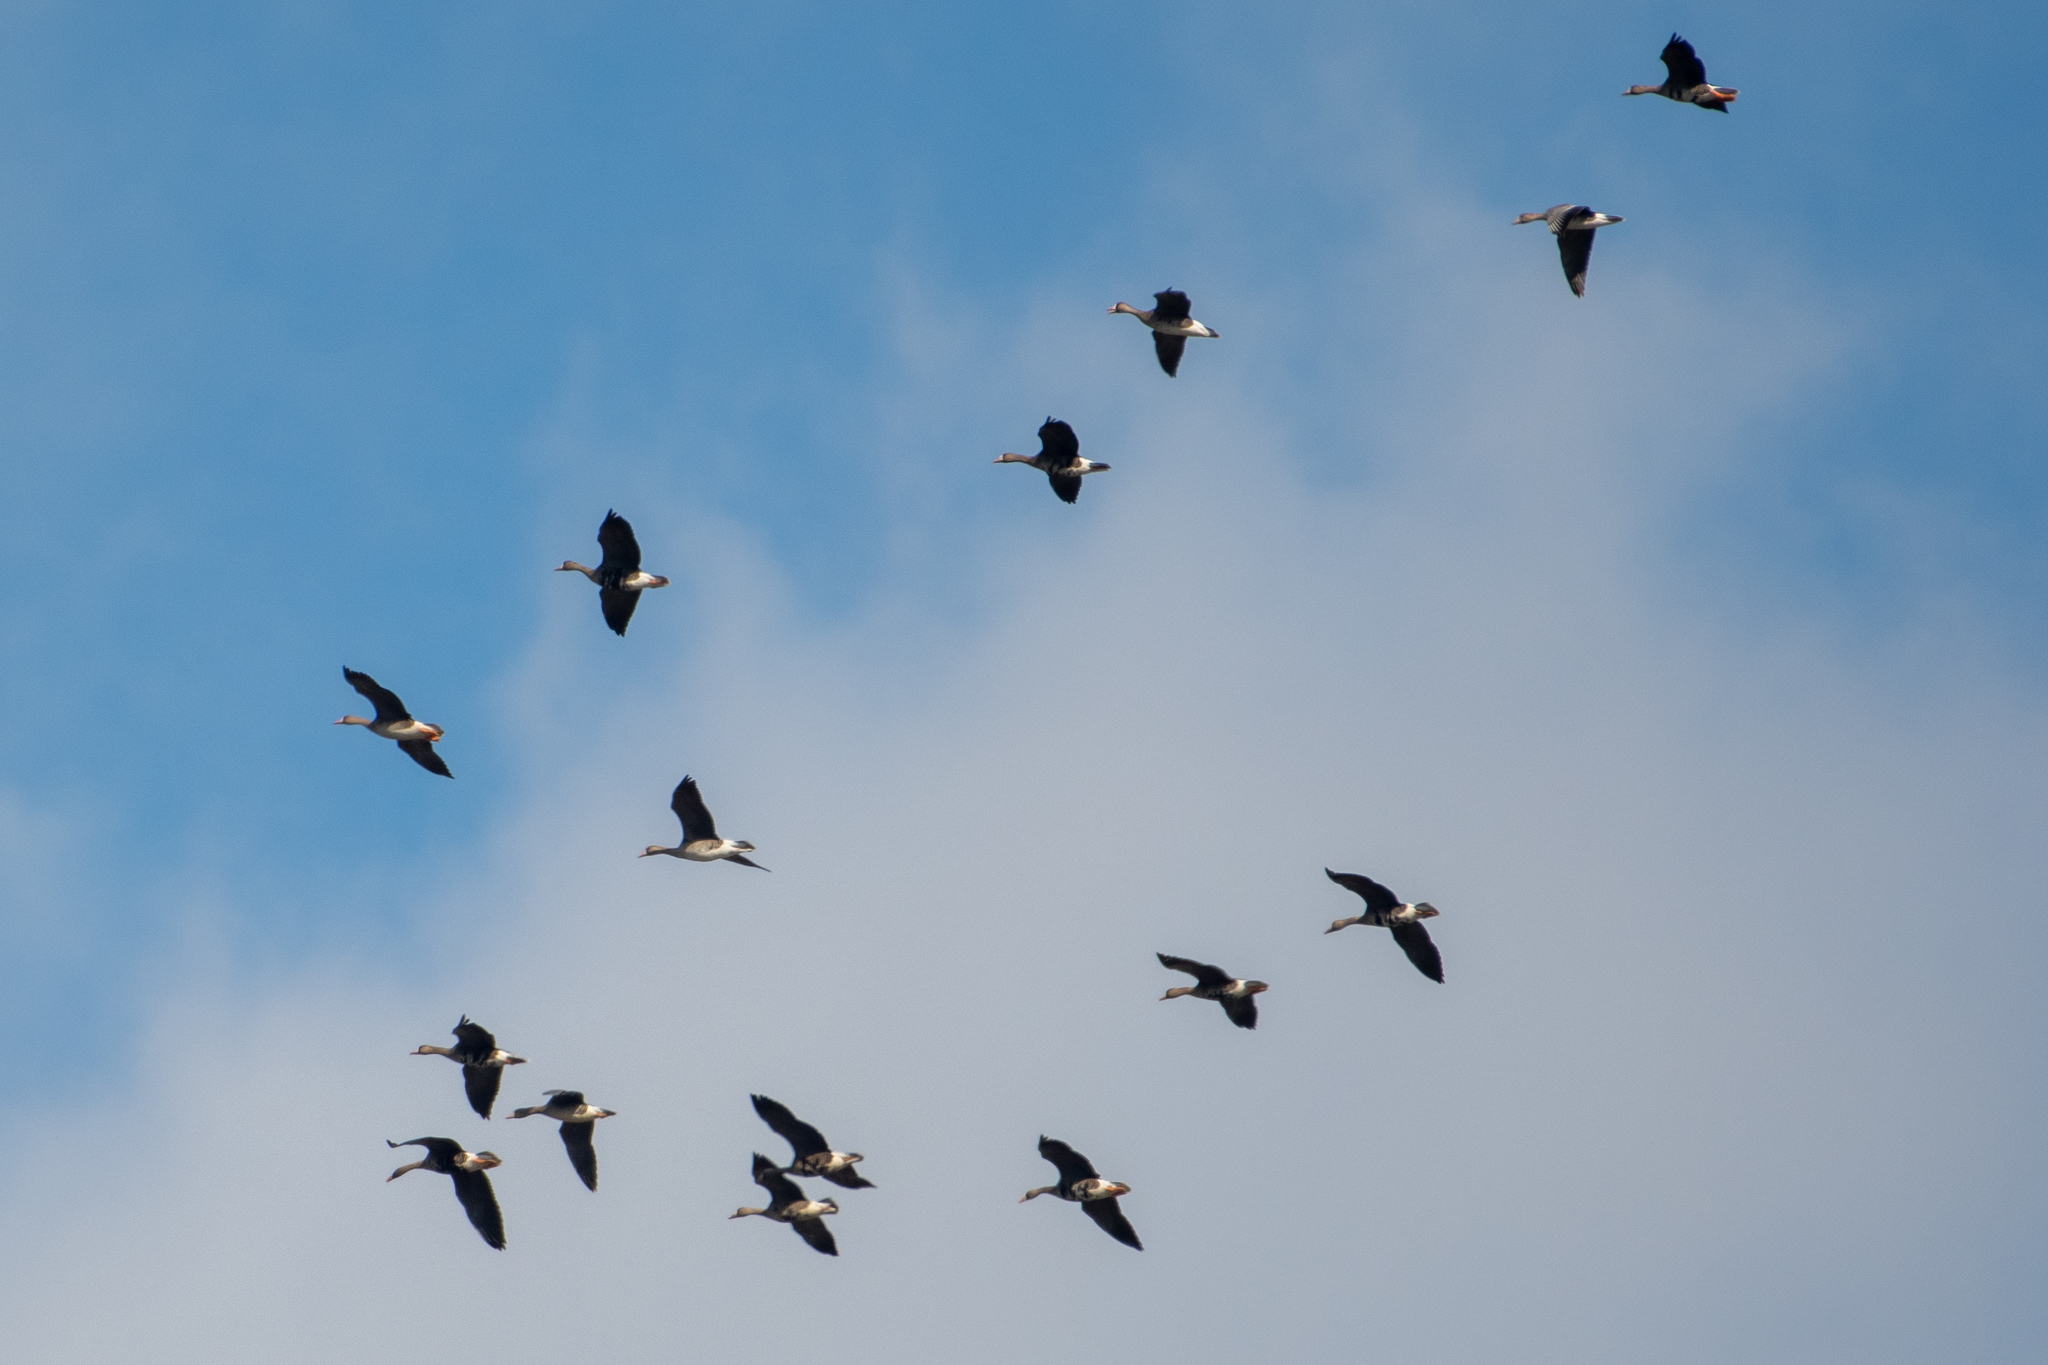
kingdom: Animalia
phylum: Chordata
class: Aves
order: Anseriformes
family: Anatidae
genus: Anser
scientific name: Anser albifrons
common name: Greater white-fronted goose
